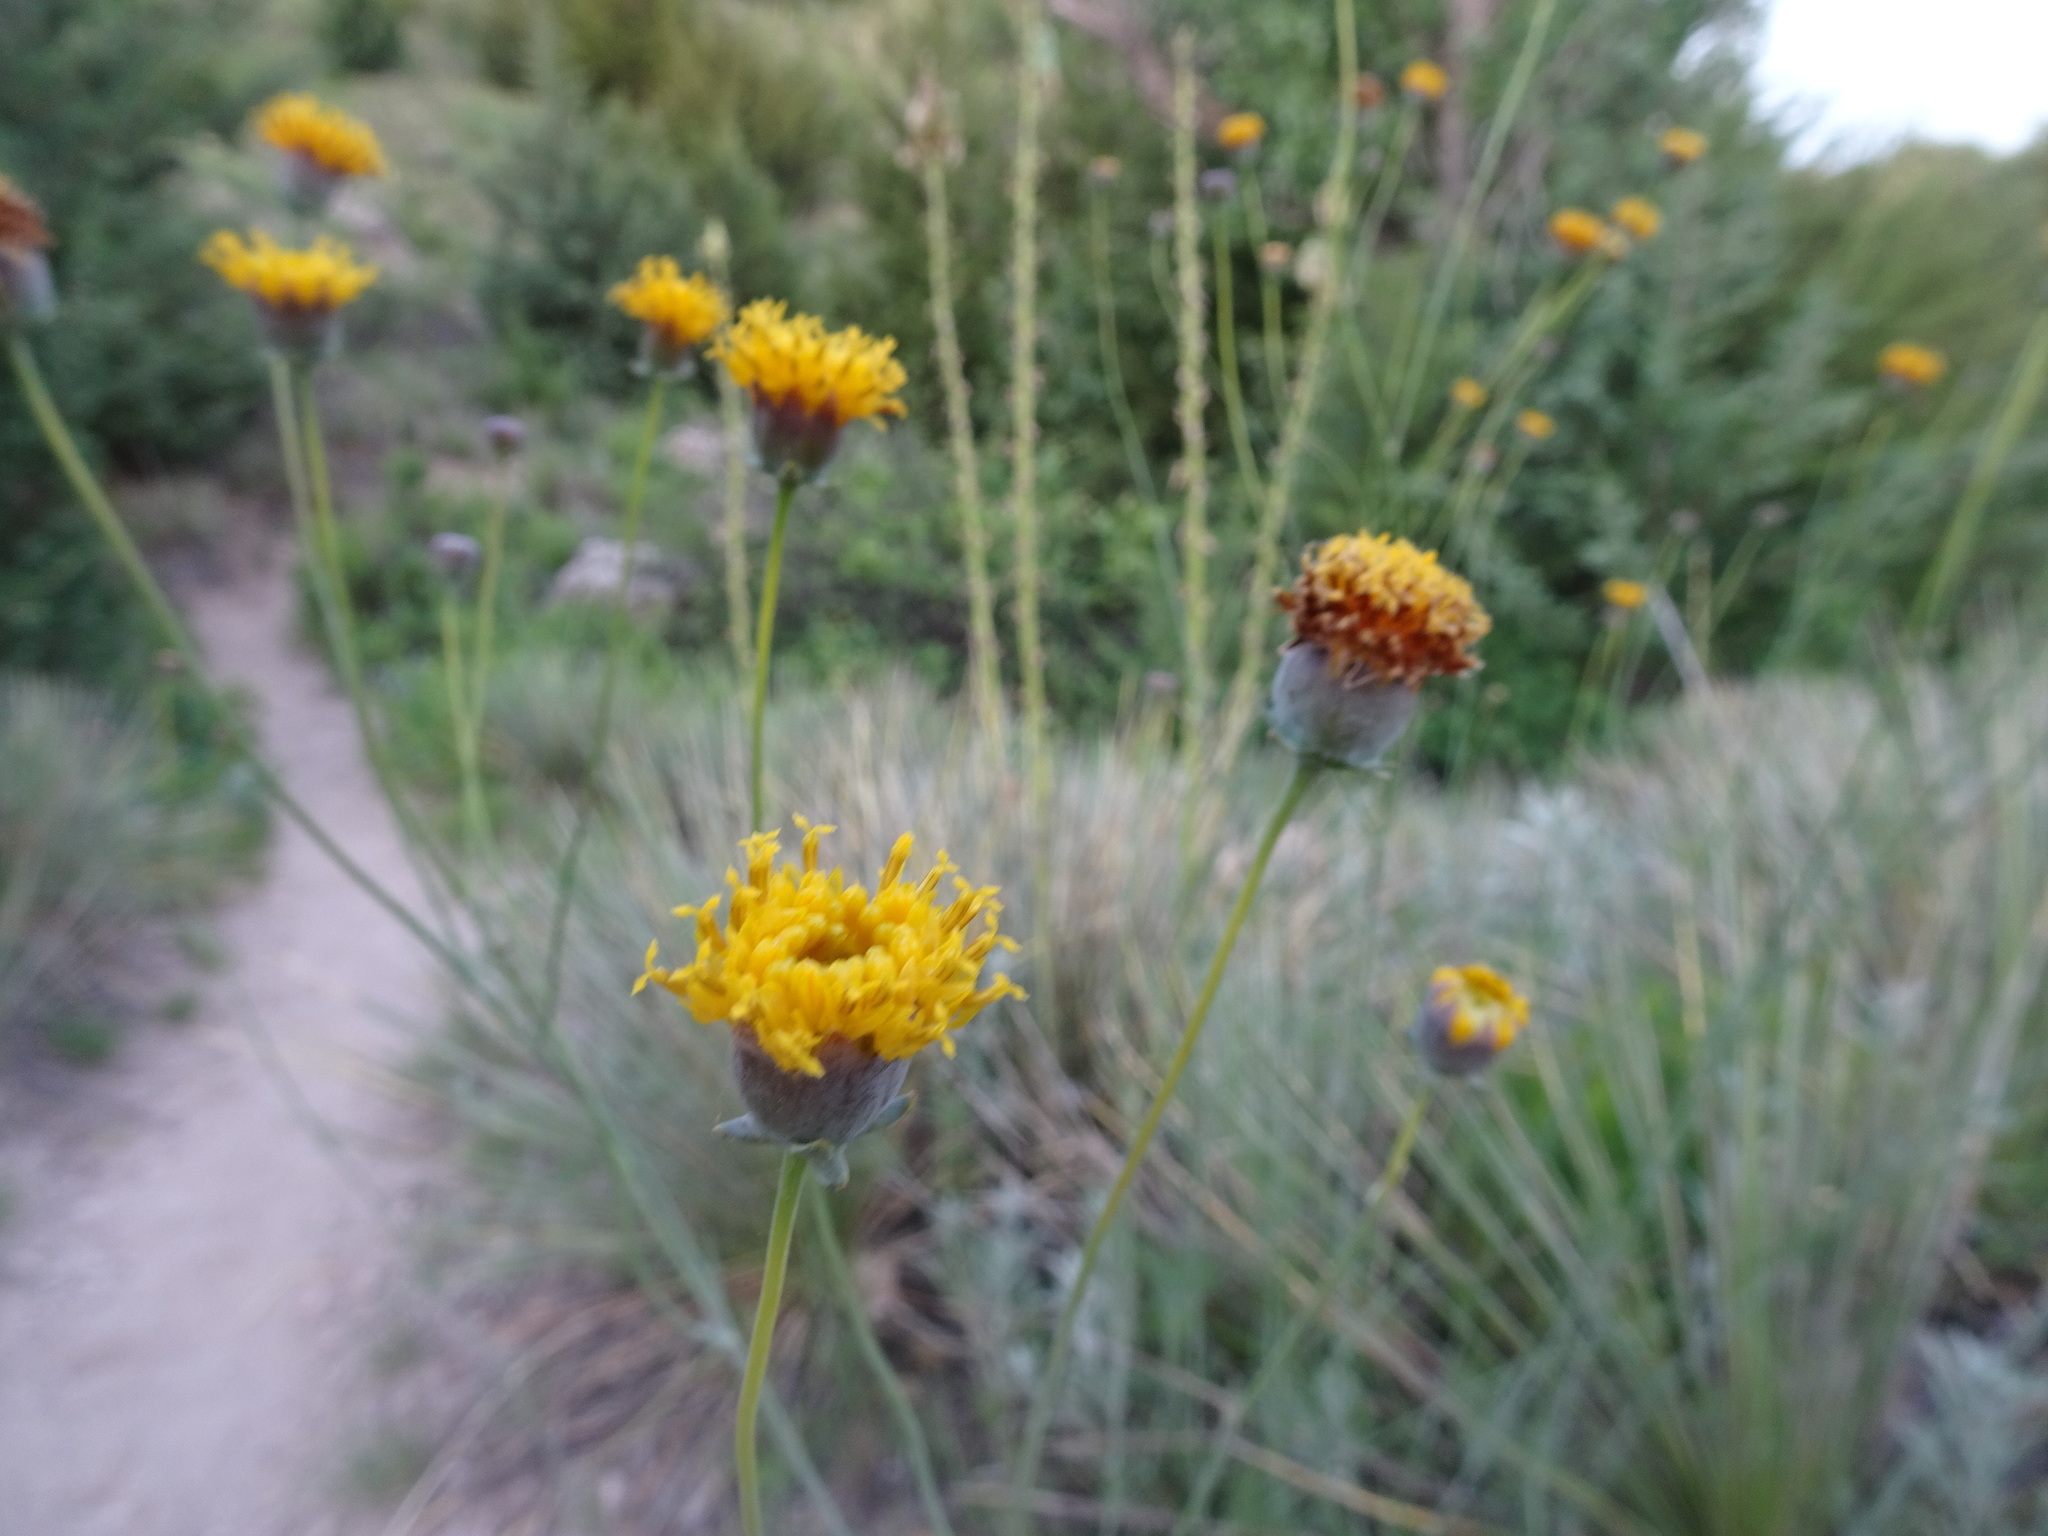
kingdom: Plantae
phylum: Tracheophyta
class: Magnoliopsida
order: Asterales
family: Asteraceae
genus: Thelesperma
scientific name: Thelesperma megapotamicum
